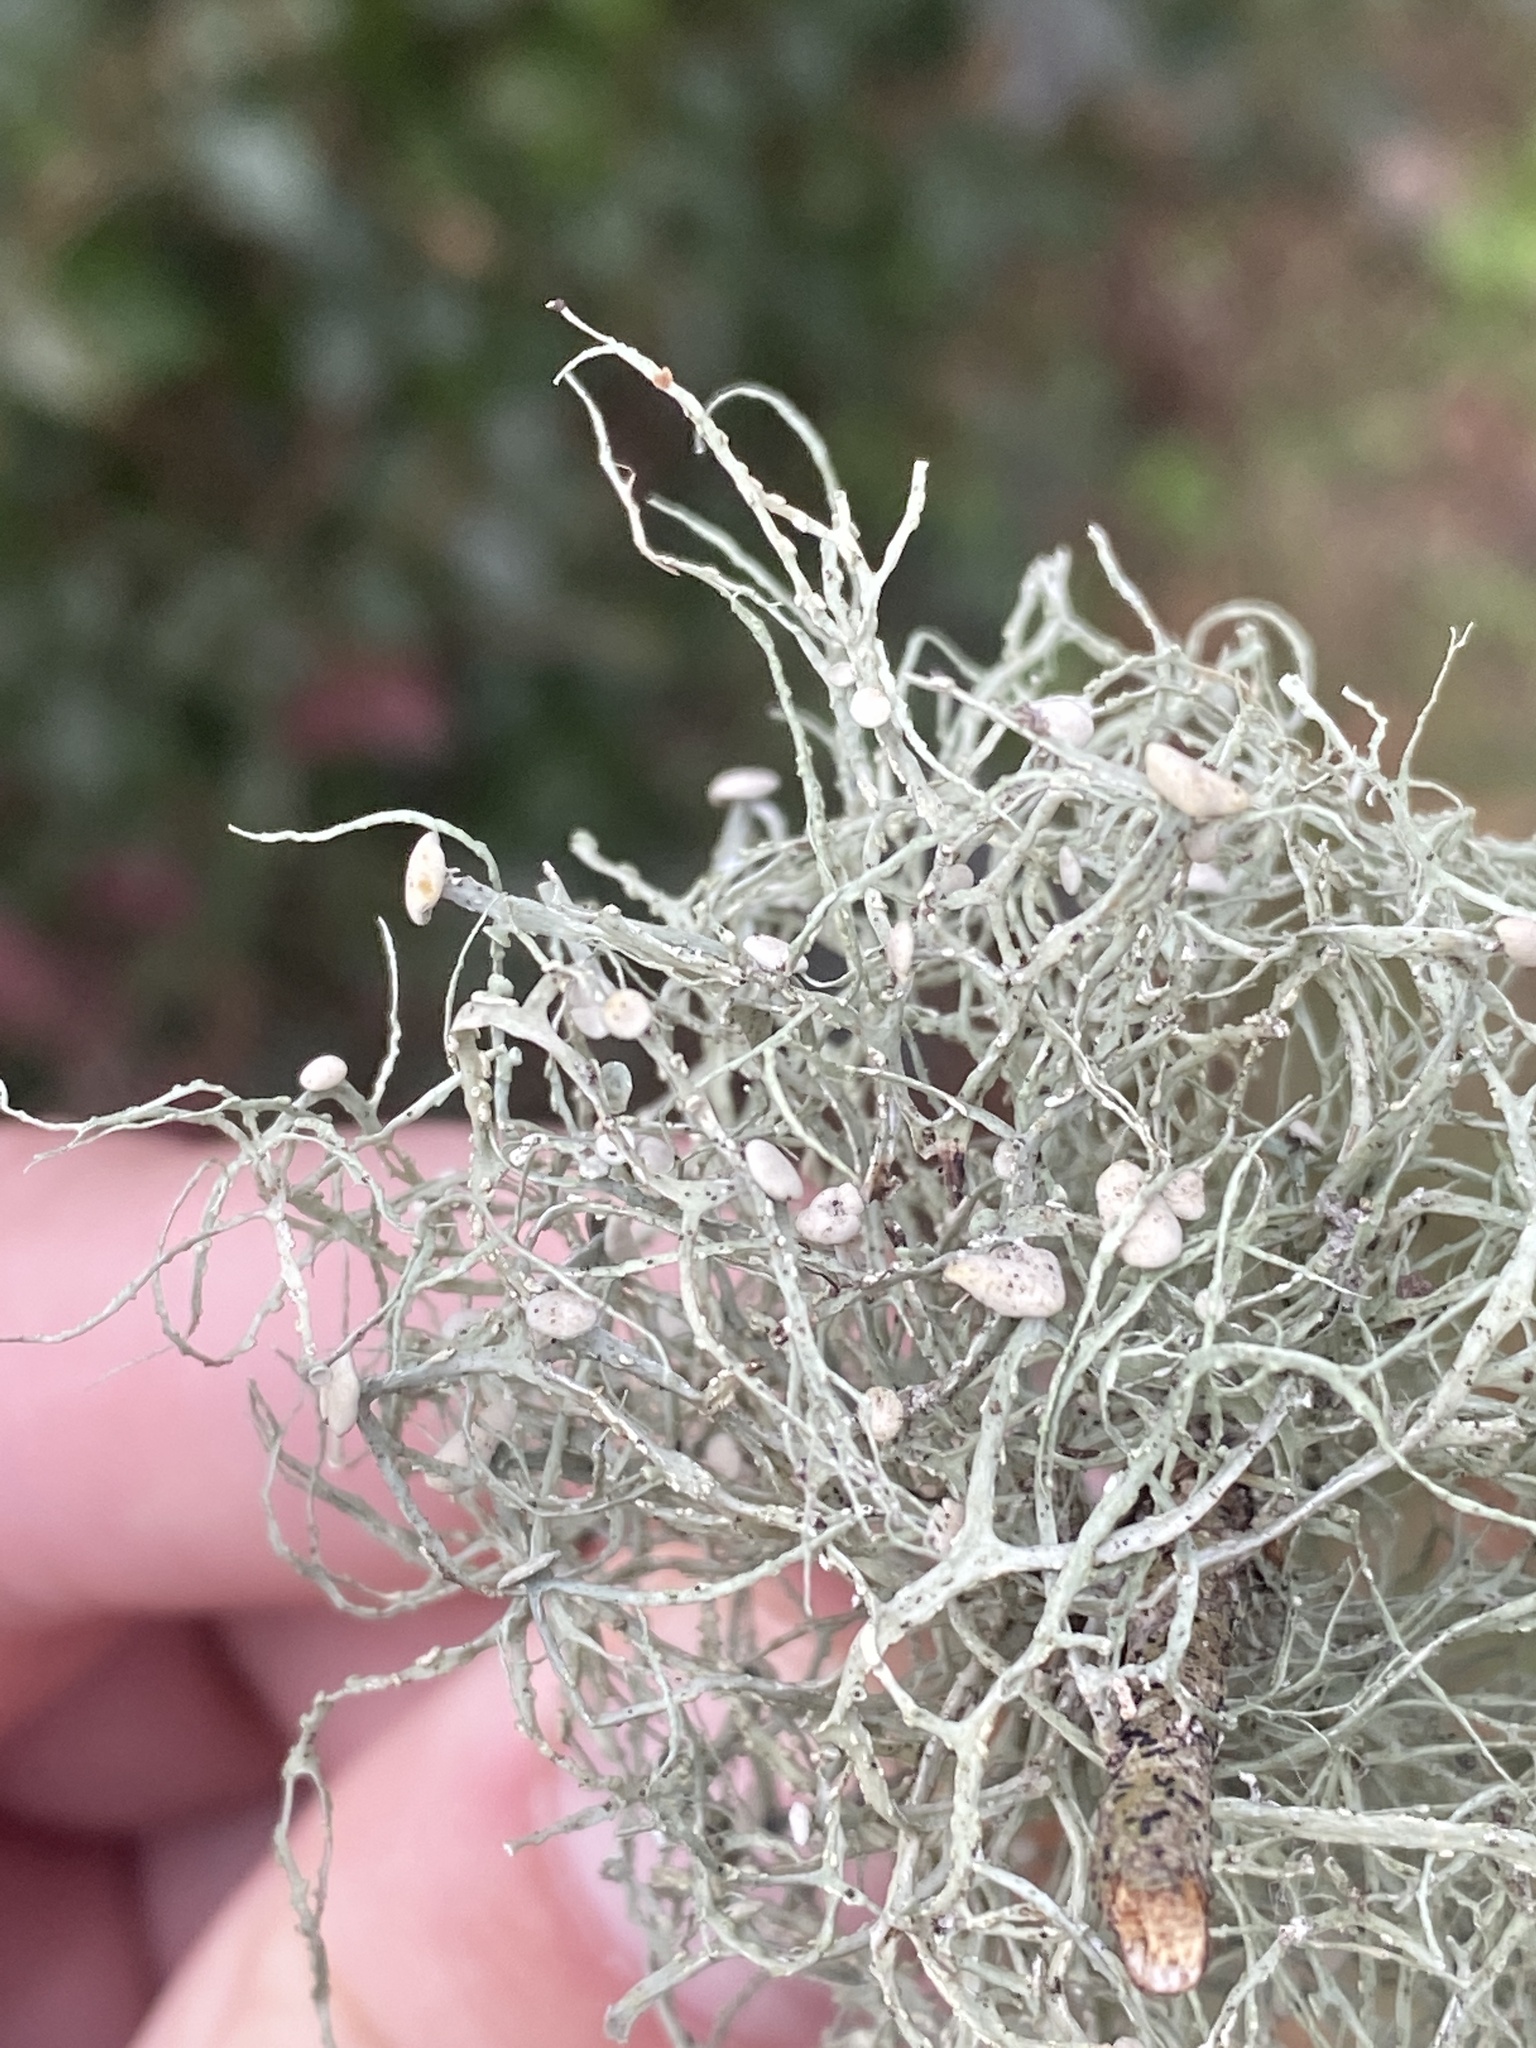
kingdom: Fungi
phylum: Ascomycota
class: Lecanoromycetes
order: Lecanorales
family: Ramalinaceae
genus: Ramalina
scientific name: Ramalina stenospora
